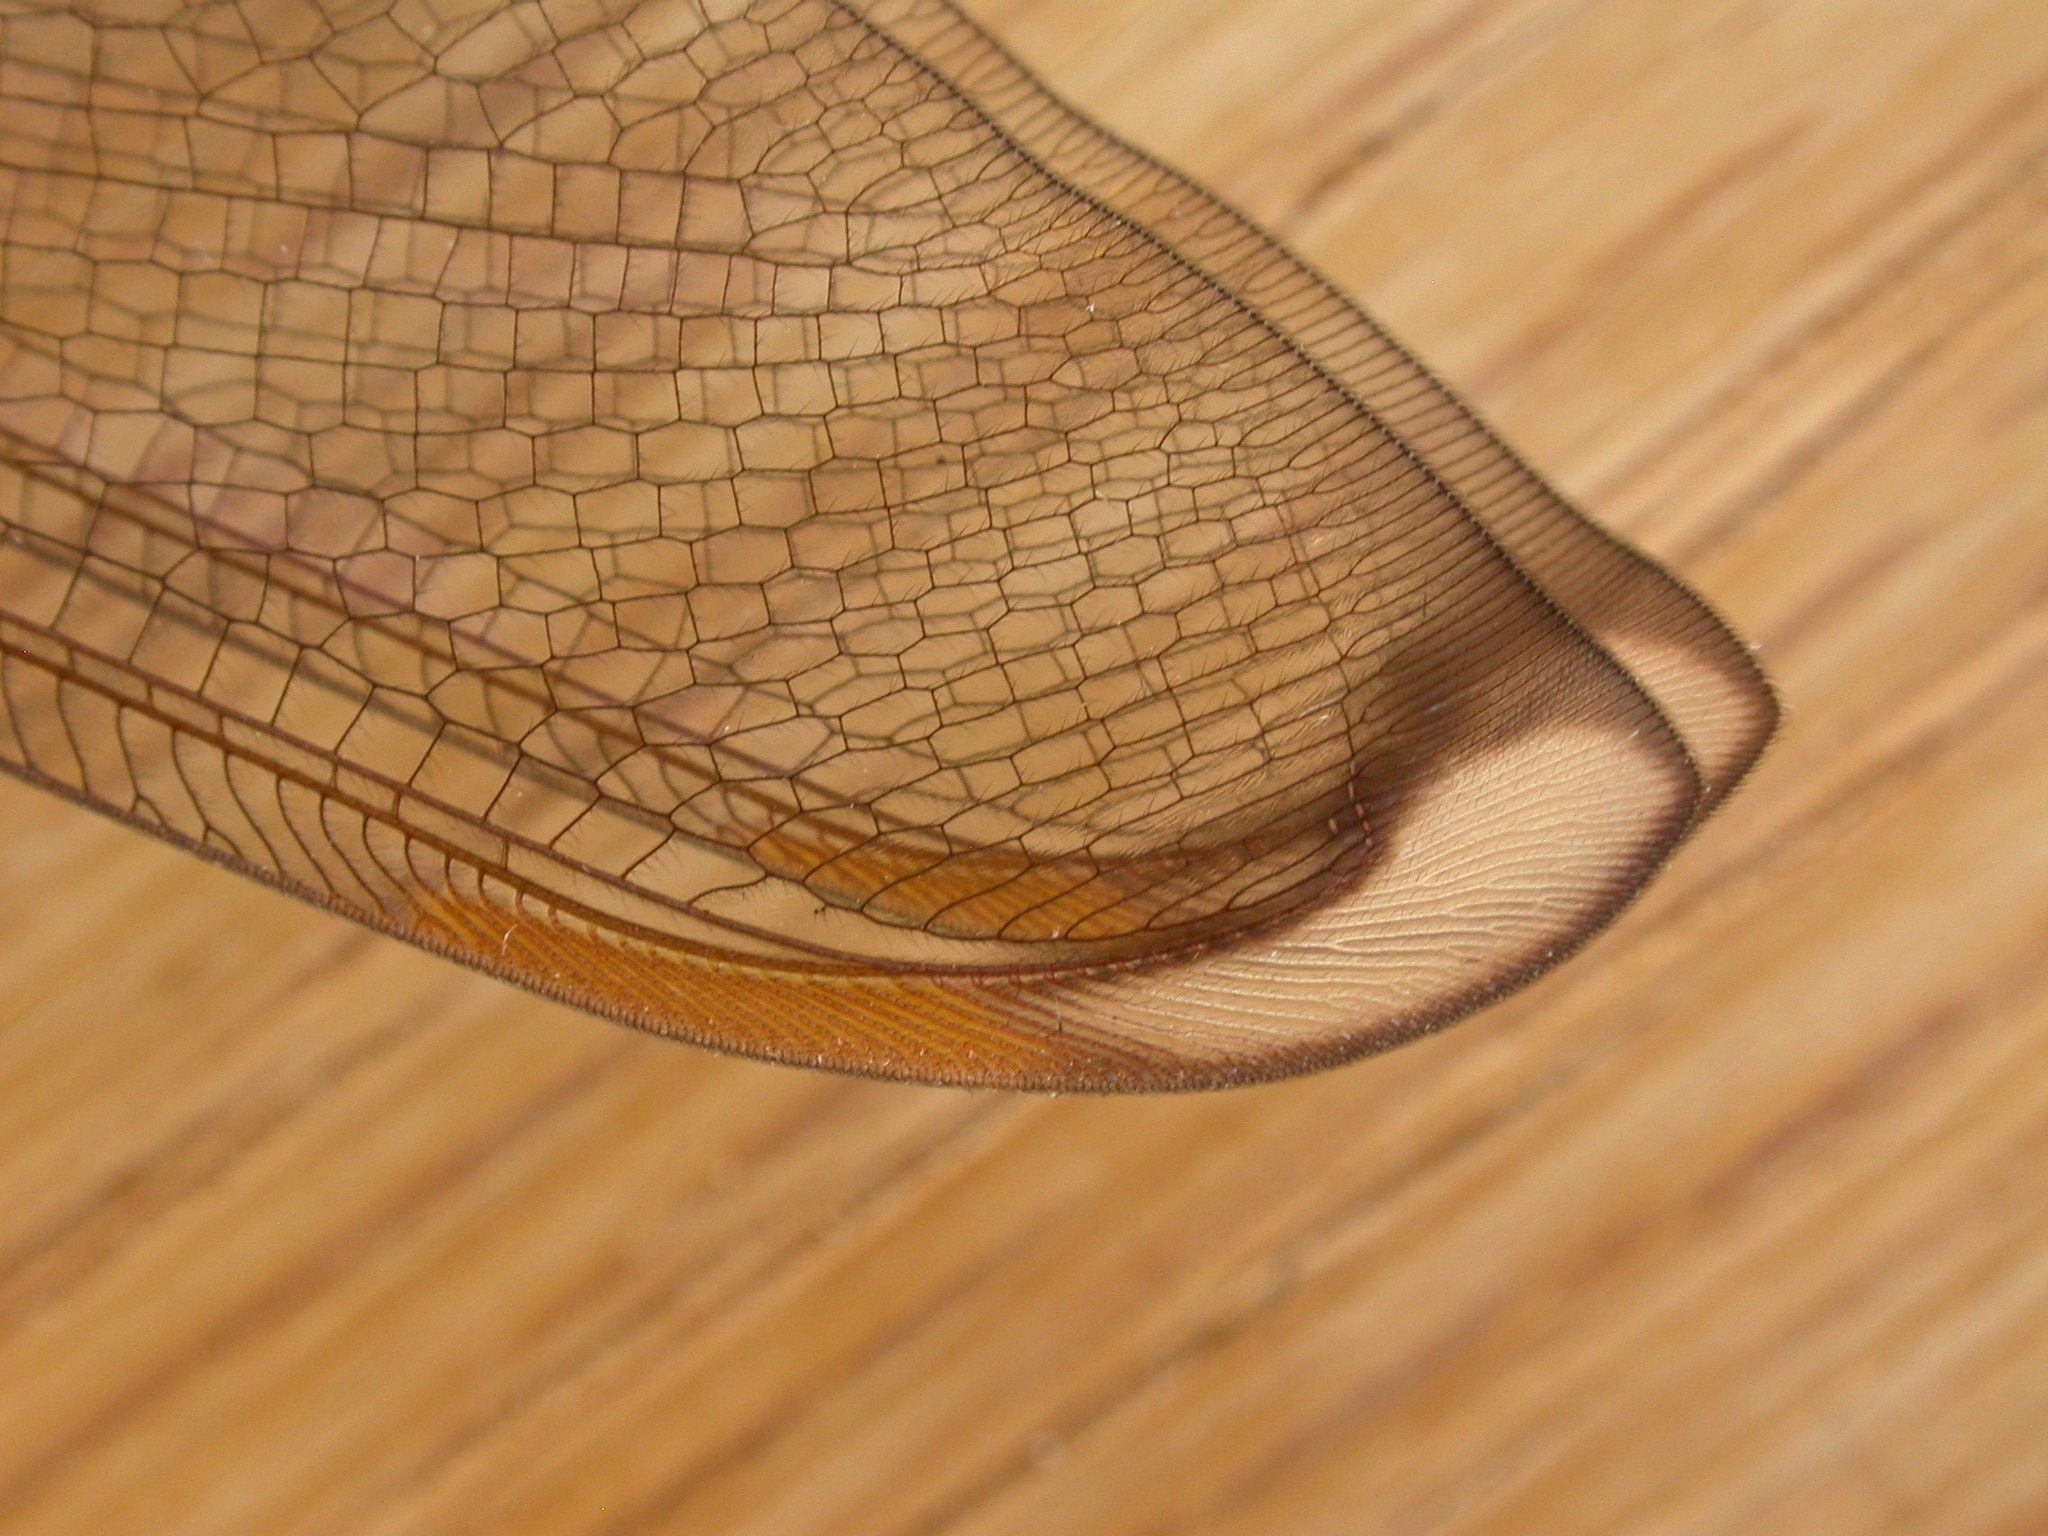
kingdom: Animalia
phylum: Arthropoda
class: Insecta
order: Neuroptera
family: Nymphidae
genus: Nymphes
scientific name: Nymphes myrmeleonoides
